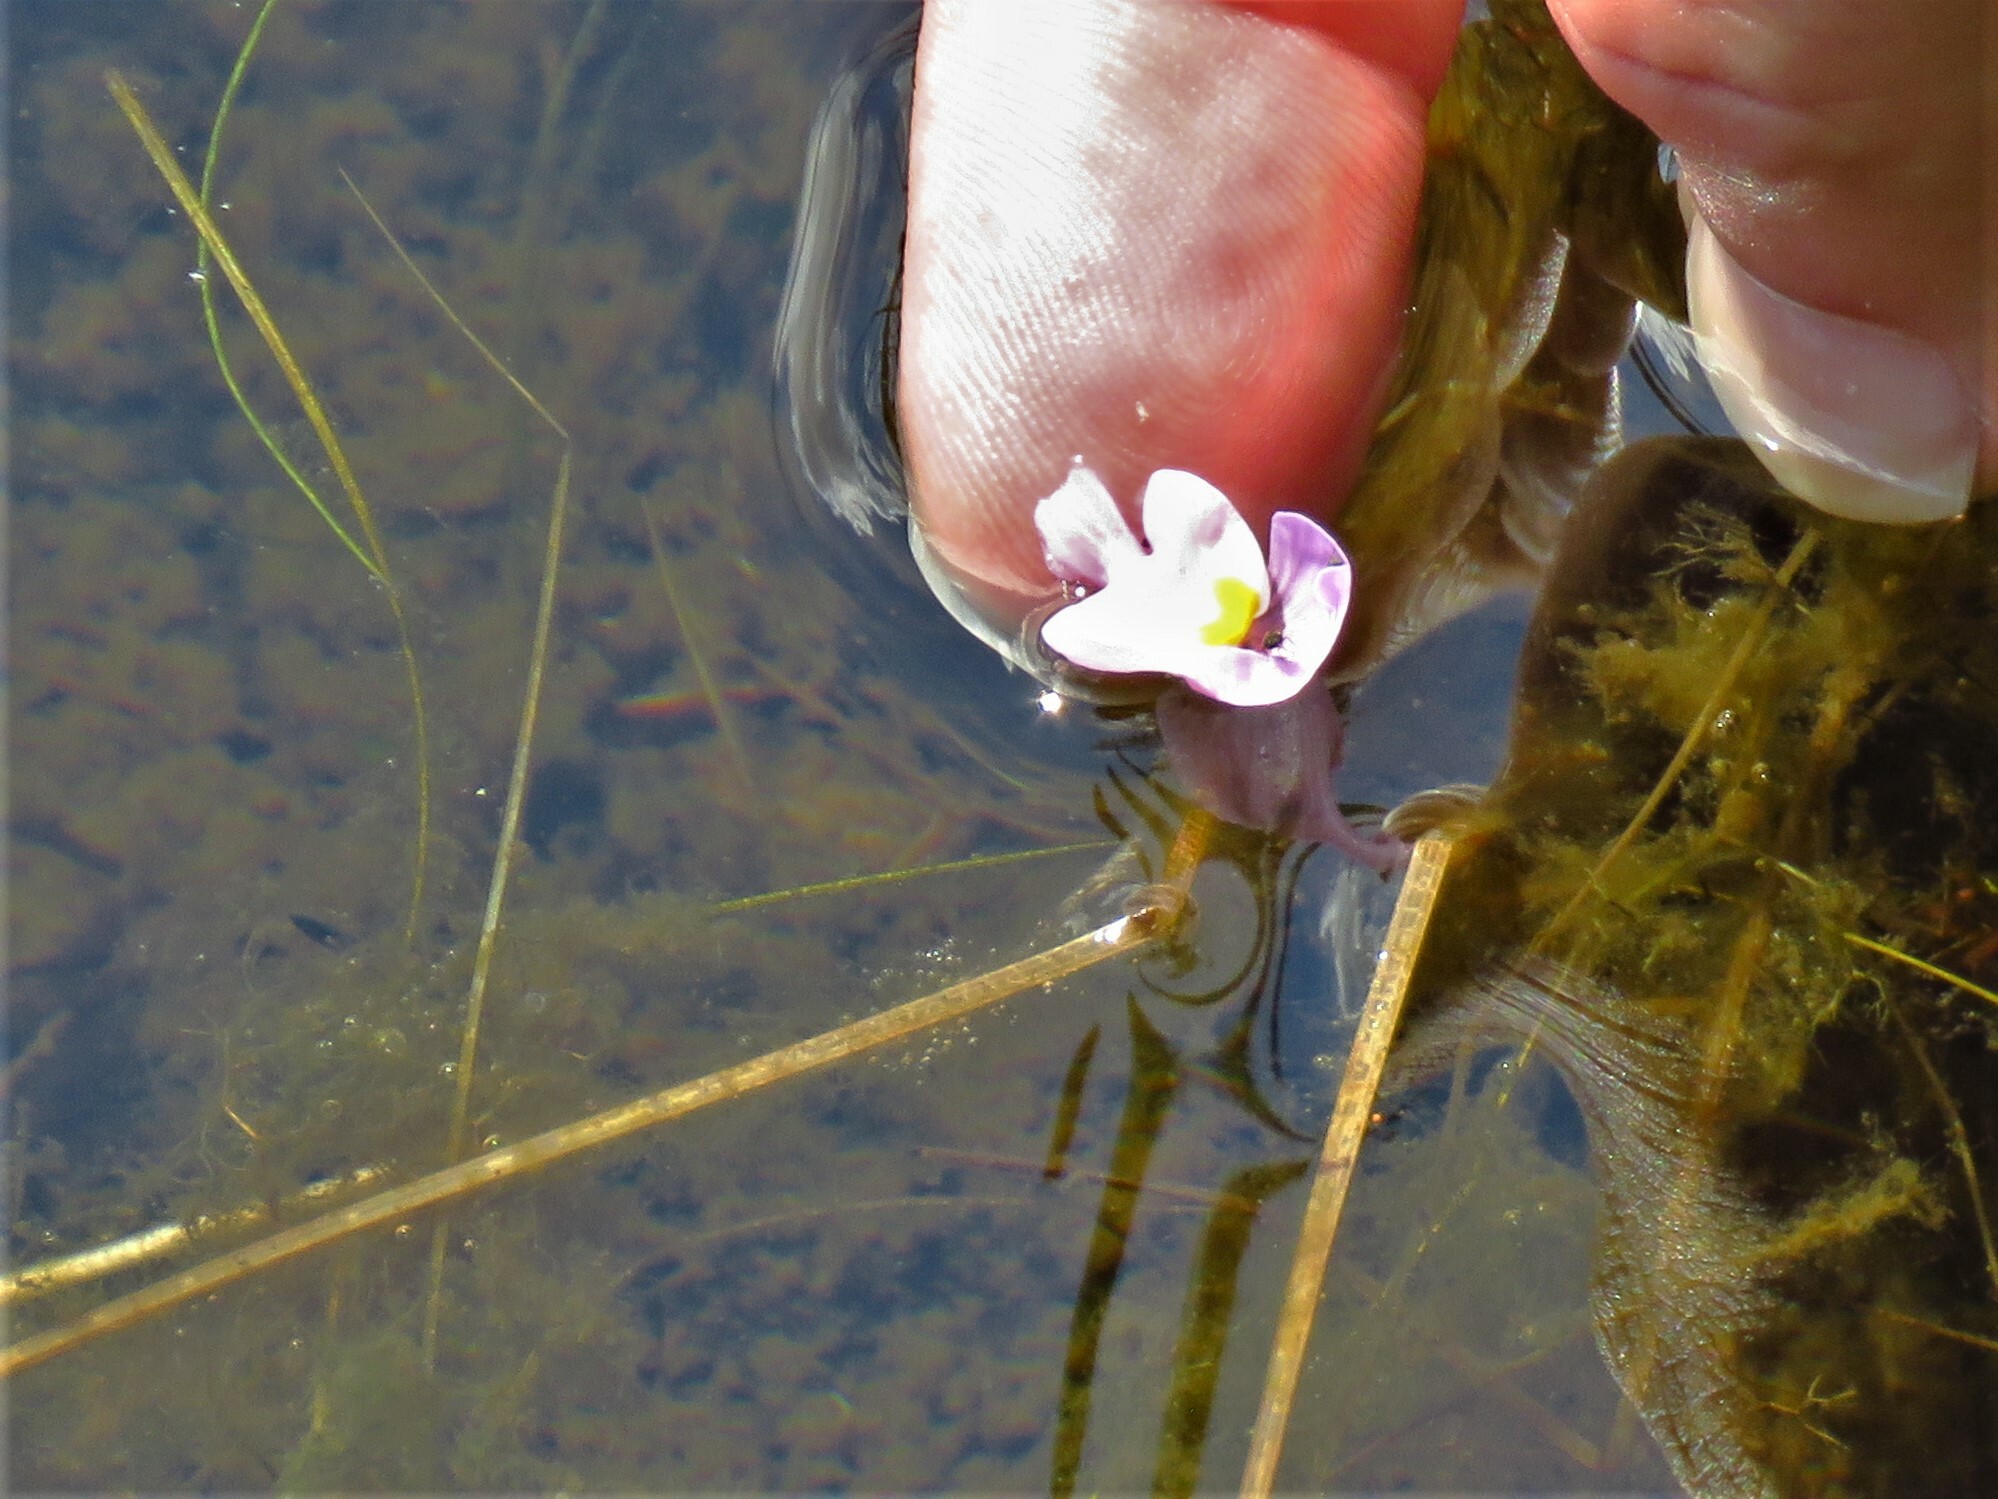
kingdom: Plantae
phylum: Tracheophyta
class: Magnoliopsida
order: Lamiales
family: Lentibulariaceae
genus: Utricularia
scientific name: Utricularia purpurea
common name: Eastern purple bladderwort
